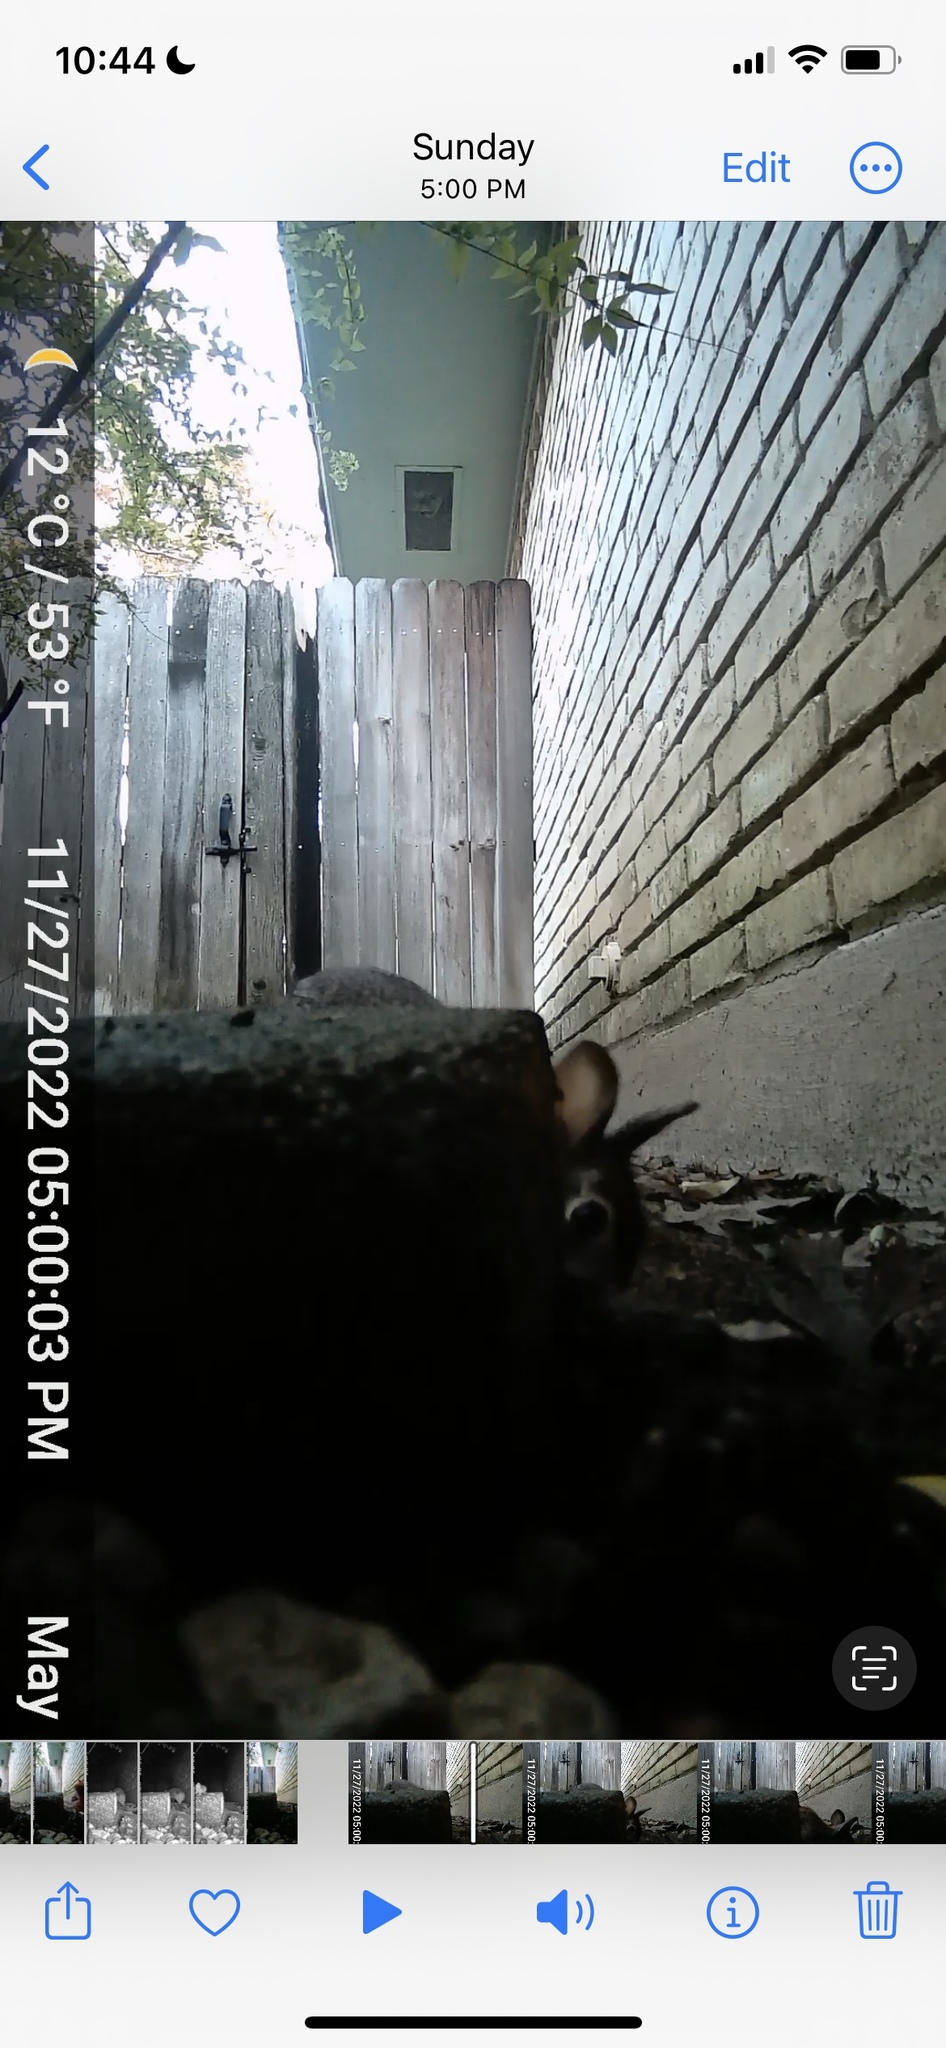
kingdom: Animalia
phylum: Chordata
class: Mammalia
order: Lagomorpha
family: Leporidae
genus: Sylvilagus
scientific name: Sylvilagus floridanus
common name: Eastern cottontail
